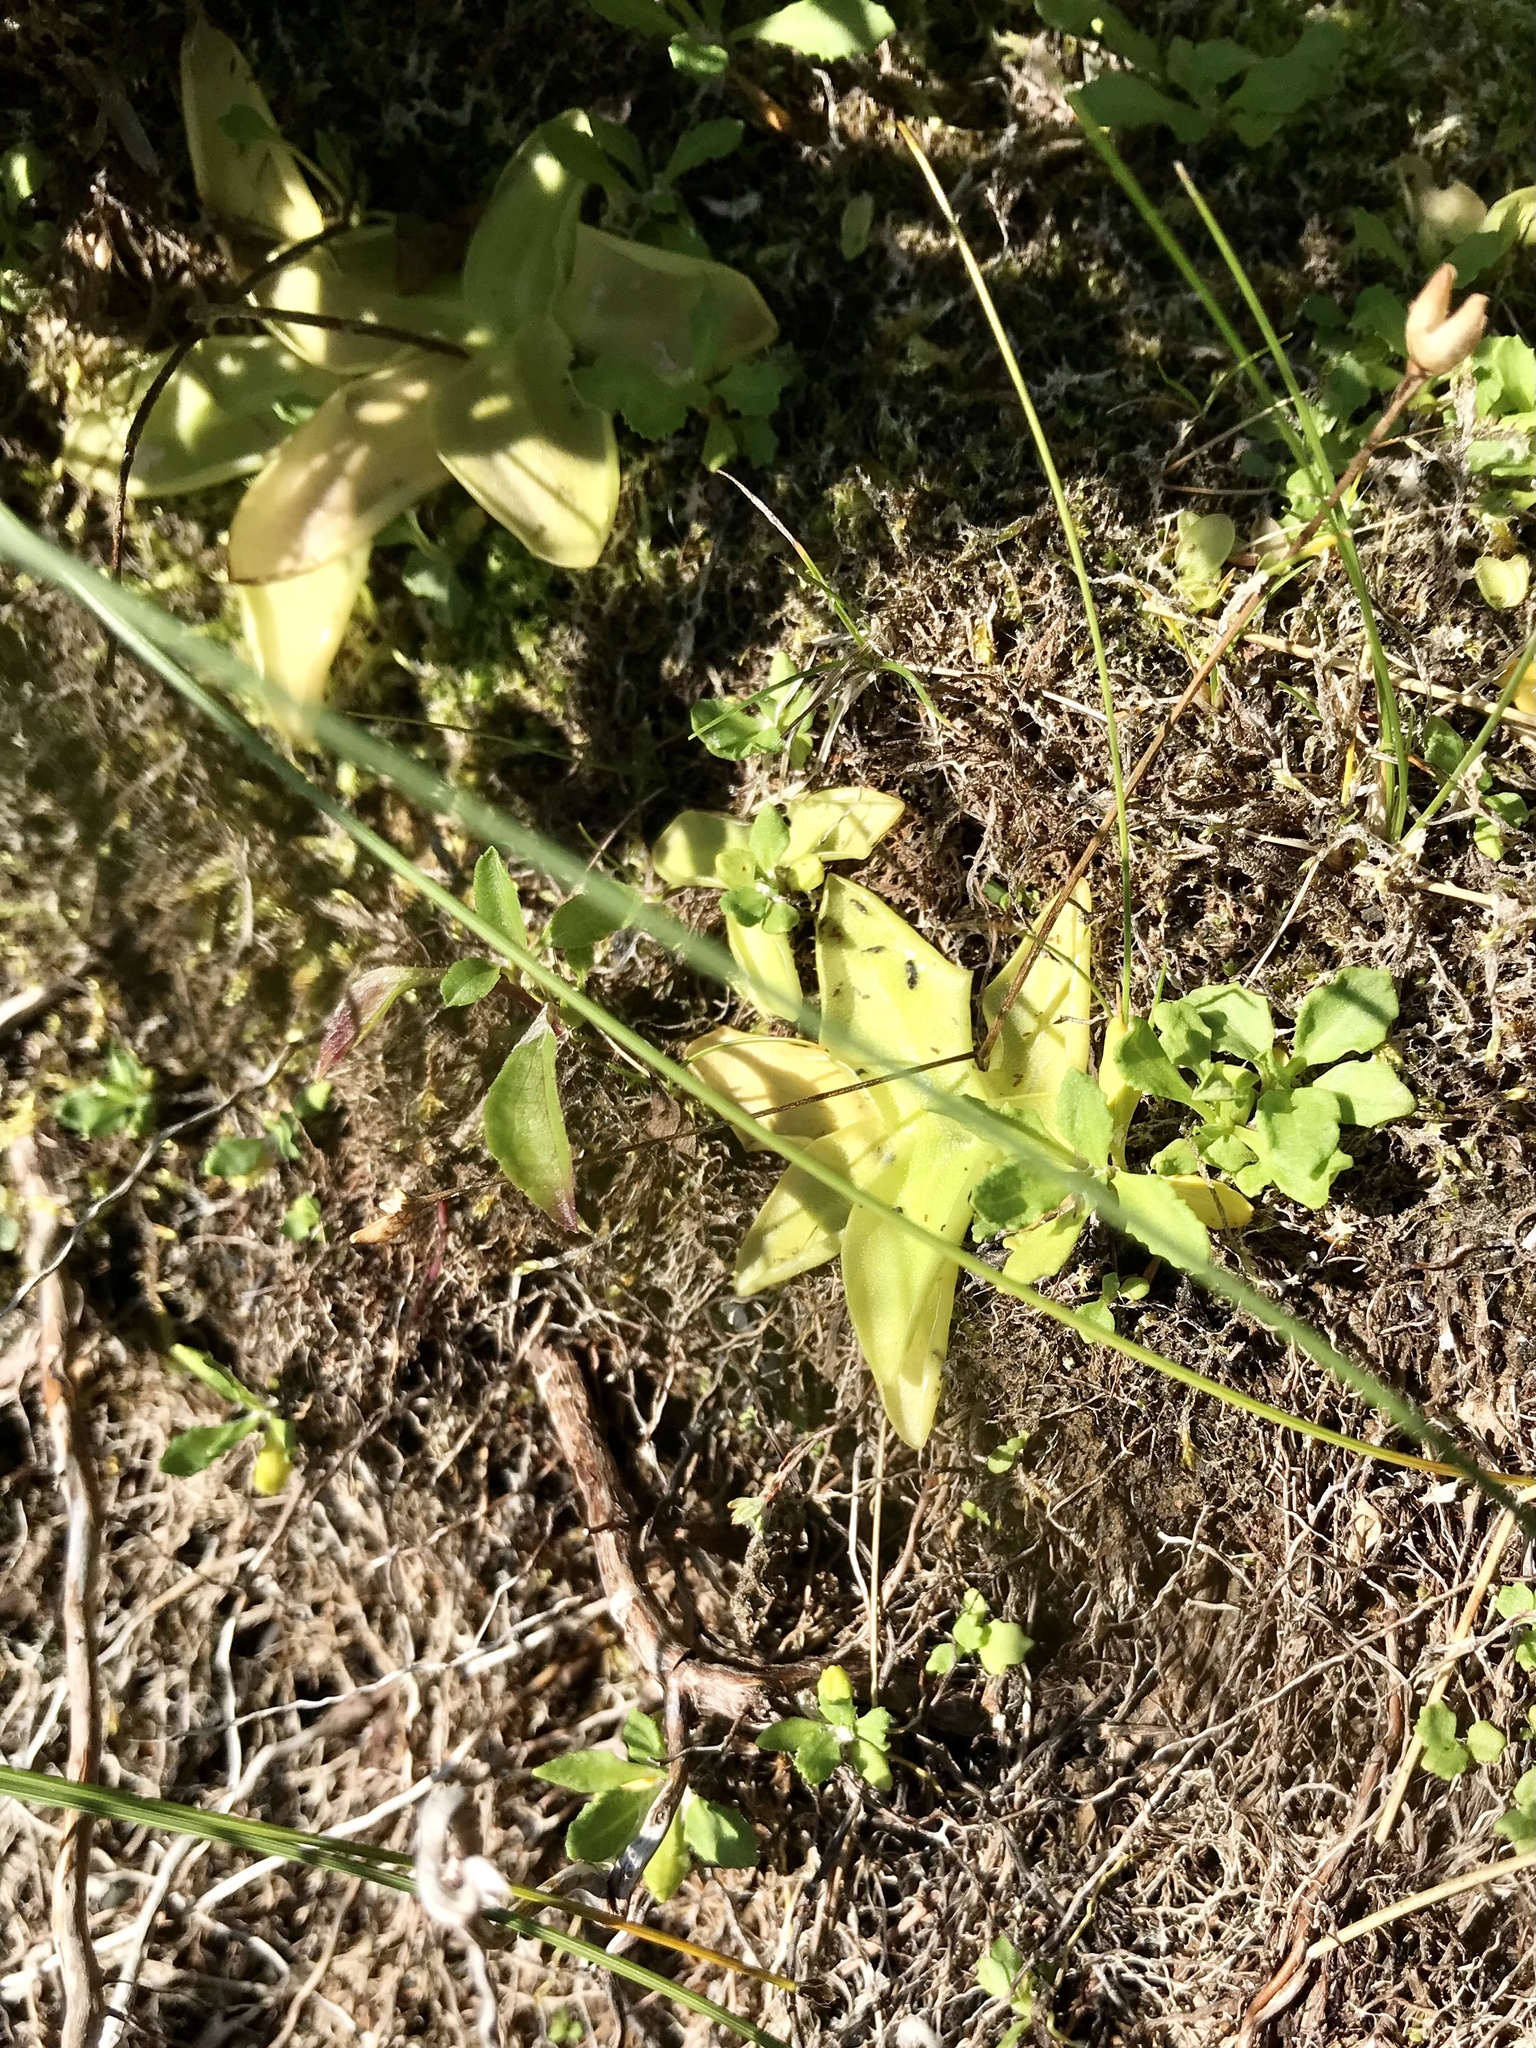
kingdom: Plantae
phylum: Tracheophyta
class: Magnoliopsida
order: Lamiales
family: Lentibulariaceae
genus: Pinguicula
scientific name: Pinguicula vulgaris
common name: Common butterwort
